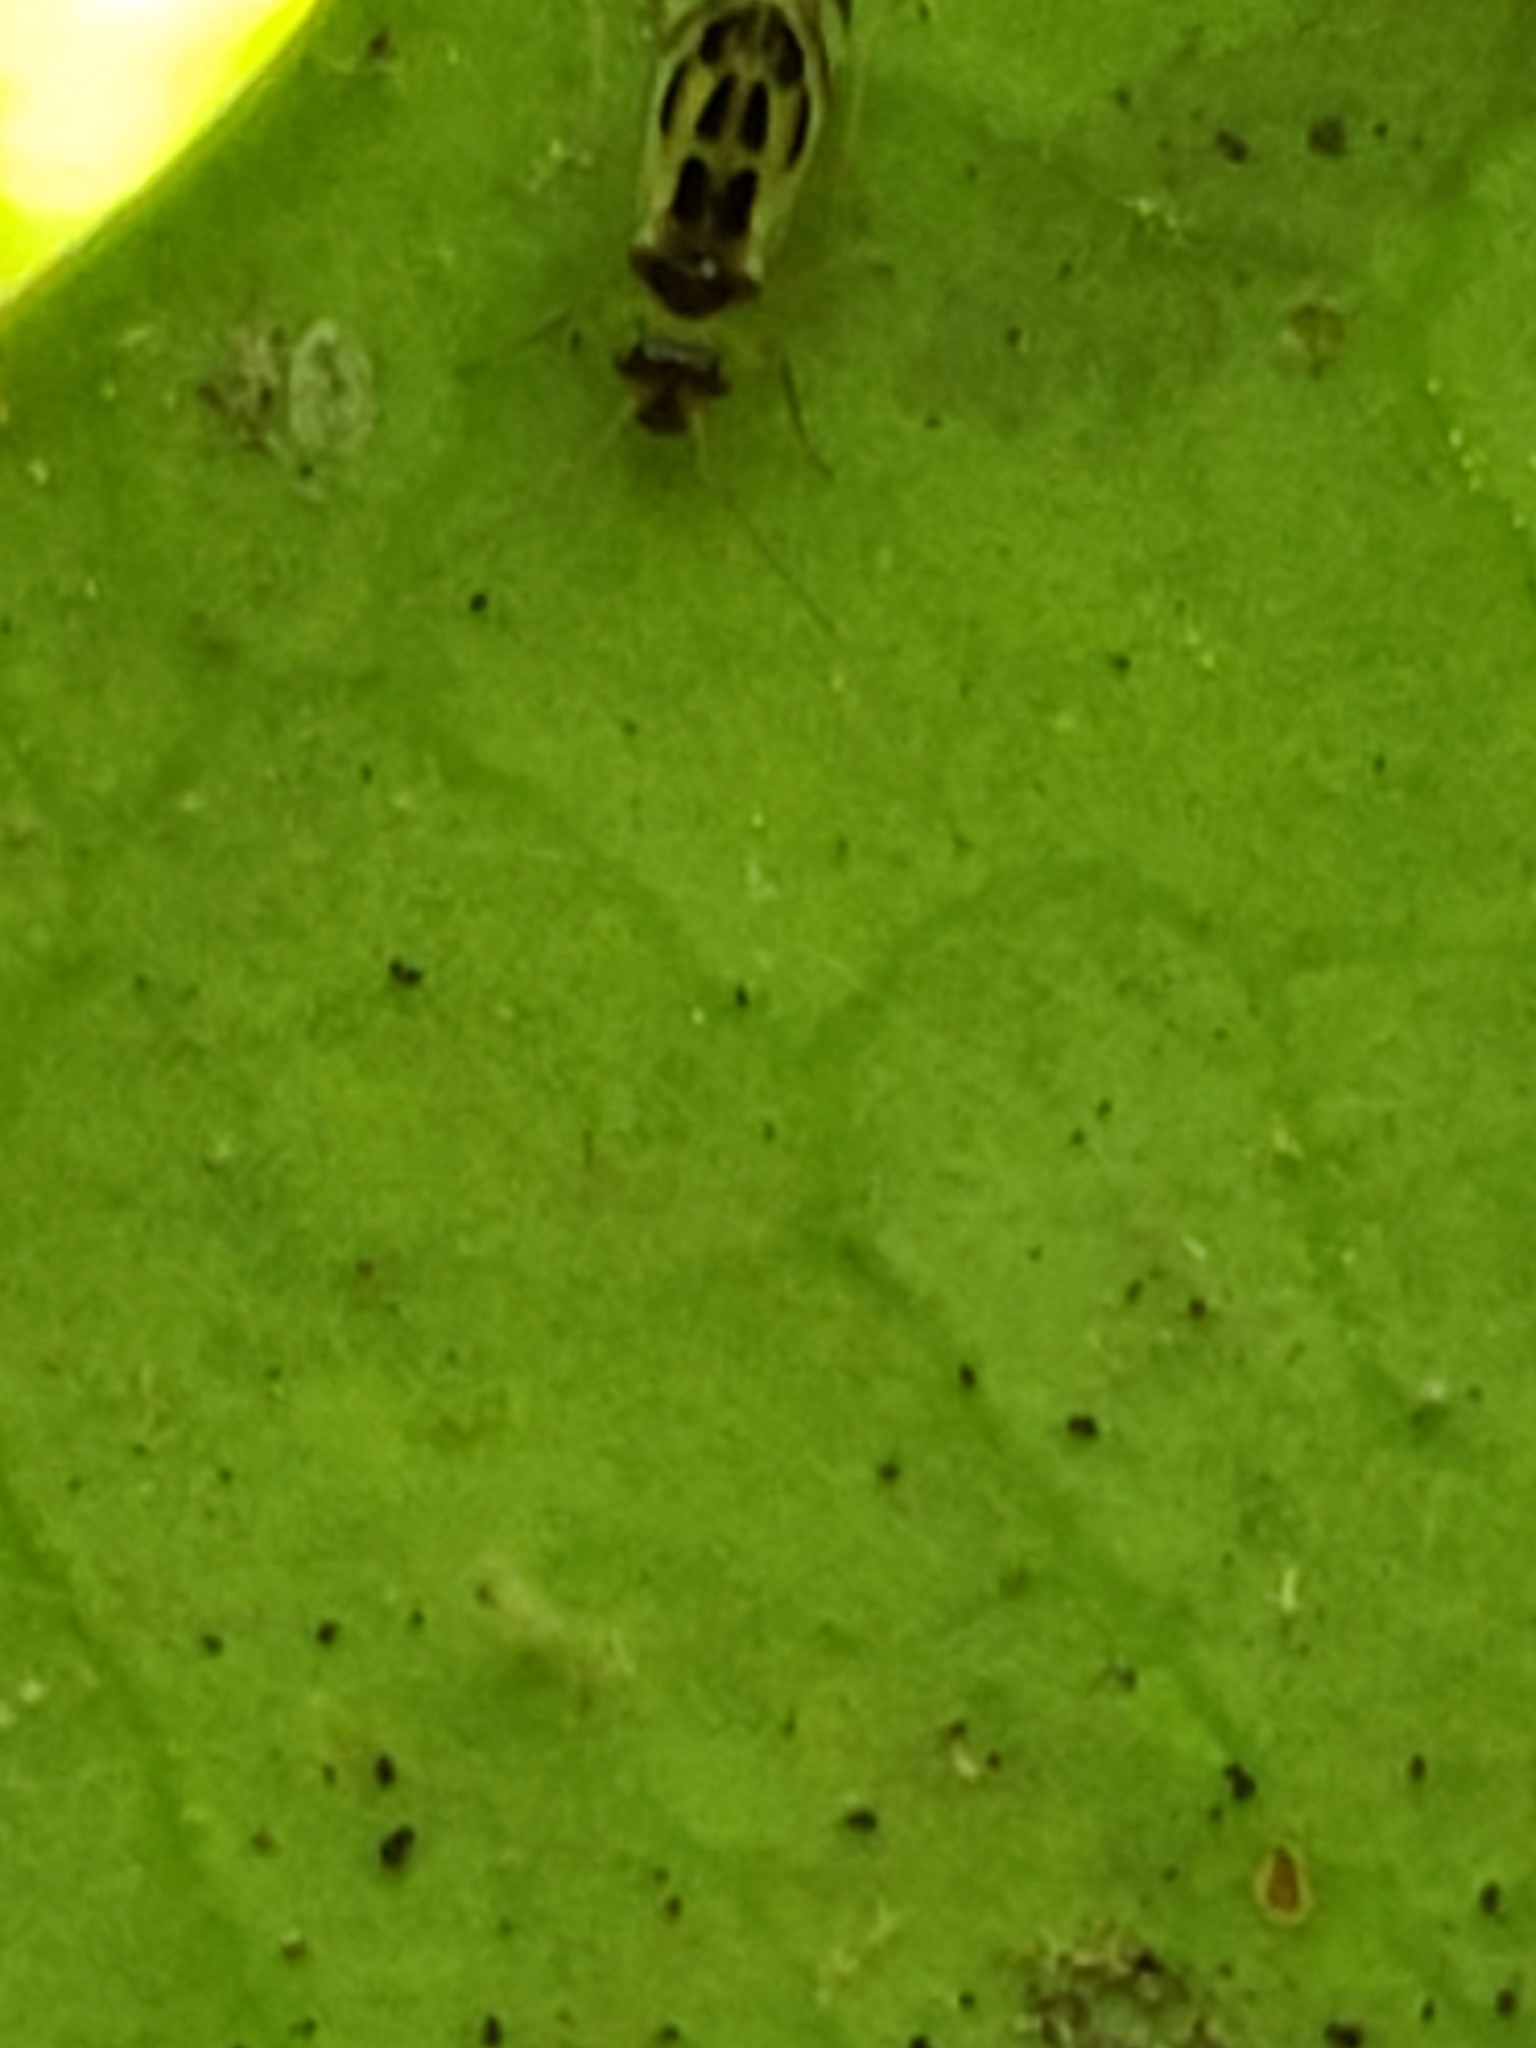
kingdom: Animalia
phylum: Arthropoda
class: Insecta
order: Psocodea
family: Stenopsocidae
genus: Graphopsocus
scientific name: Graphopsocus cruciatus
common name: Lizard bark louse
